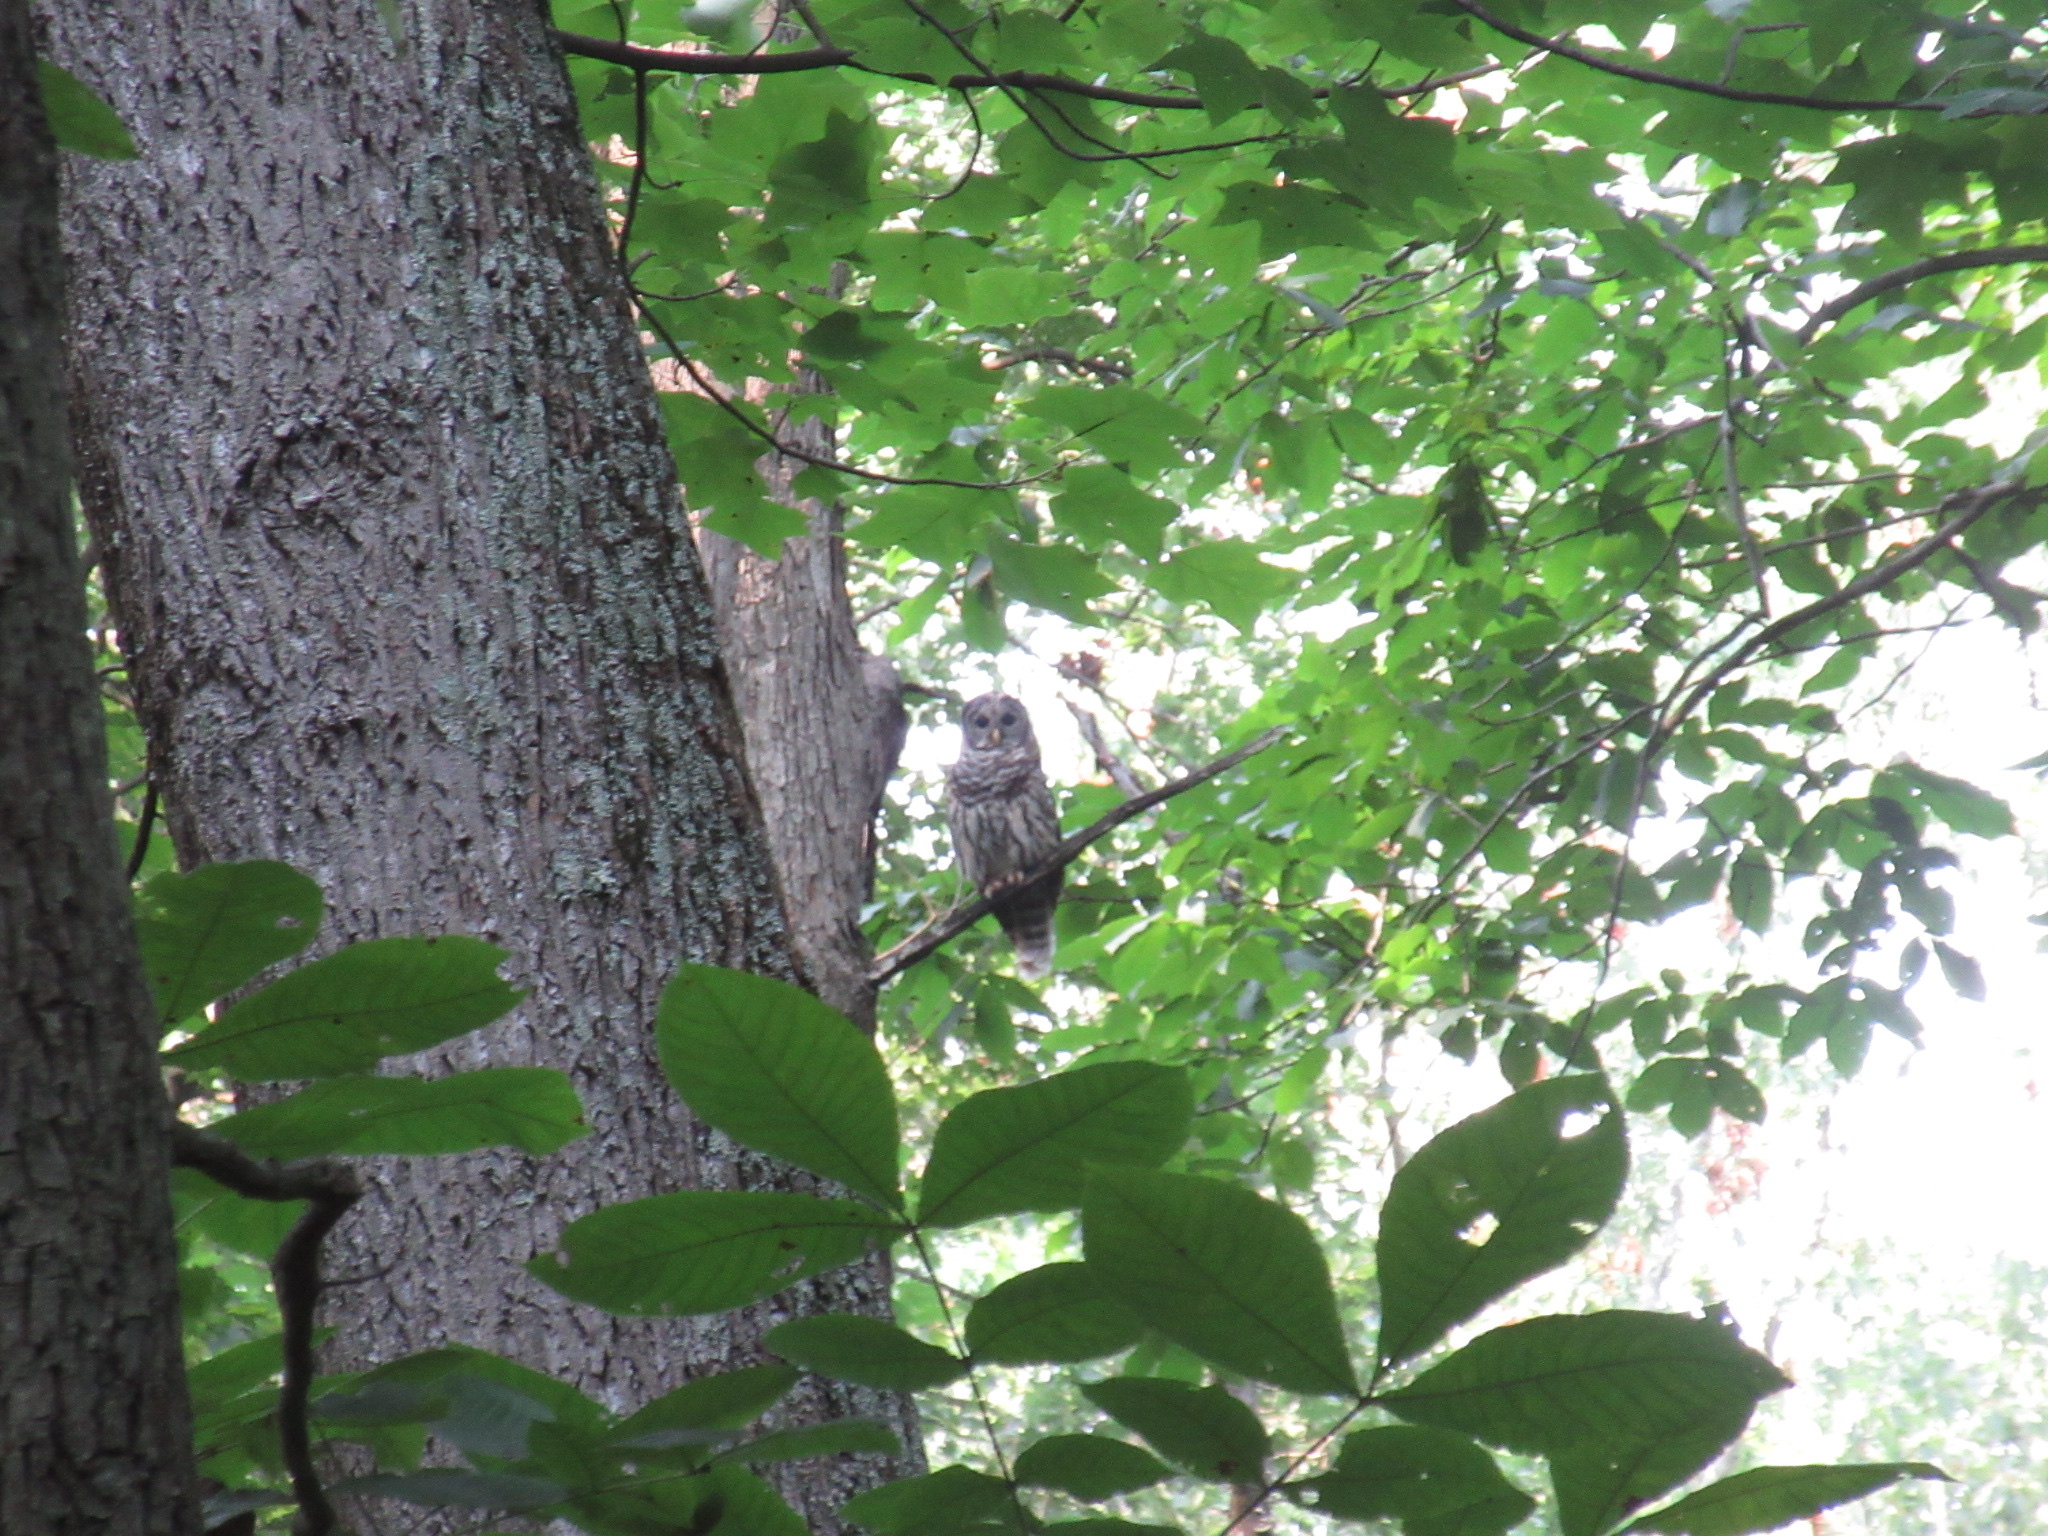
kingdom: Animalia
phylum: Chordata
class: Aves
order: Strigiformes
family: Strigidae
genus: Strix
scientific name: Strix varia
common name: Barred owl
